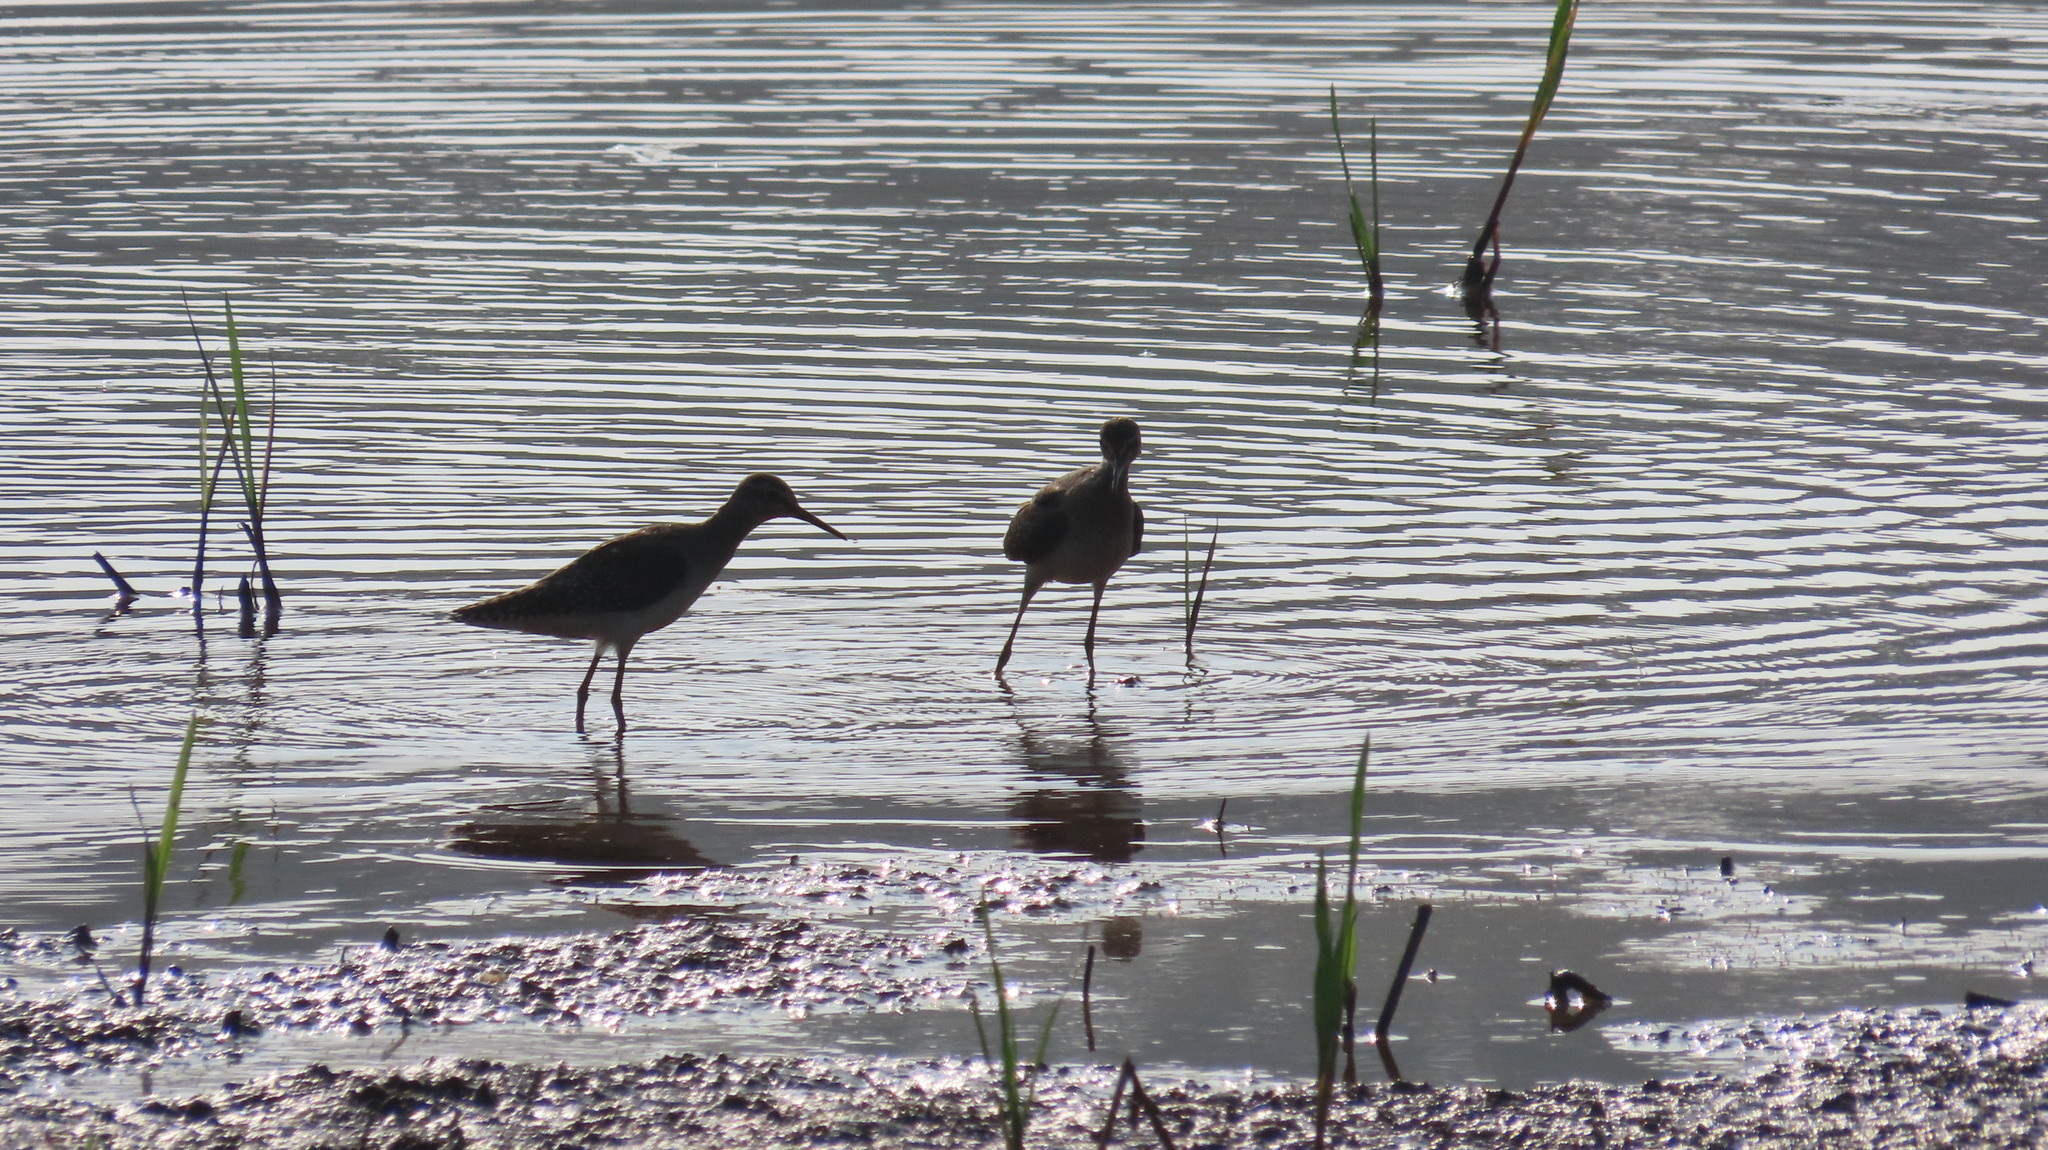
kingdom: Animalia
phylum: Chordata
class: Aves
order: Charadriiformes
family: Scolopacidae
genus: Tringa
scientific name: Tringa glareola
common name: Wood sandpiper
